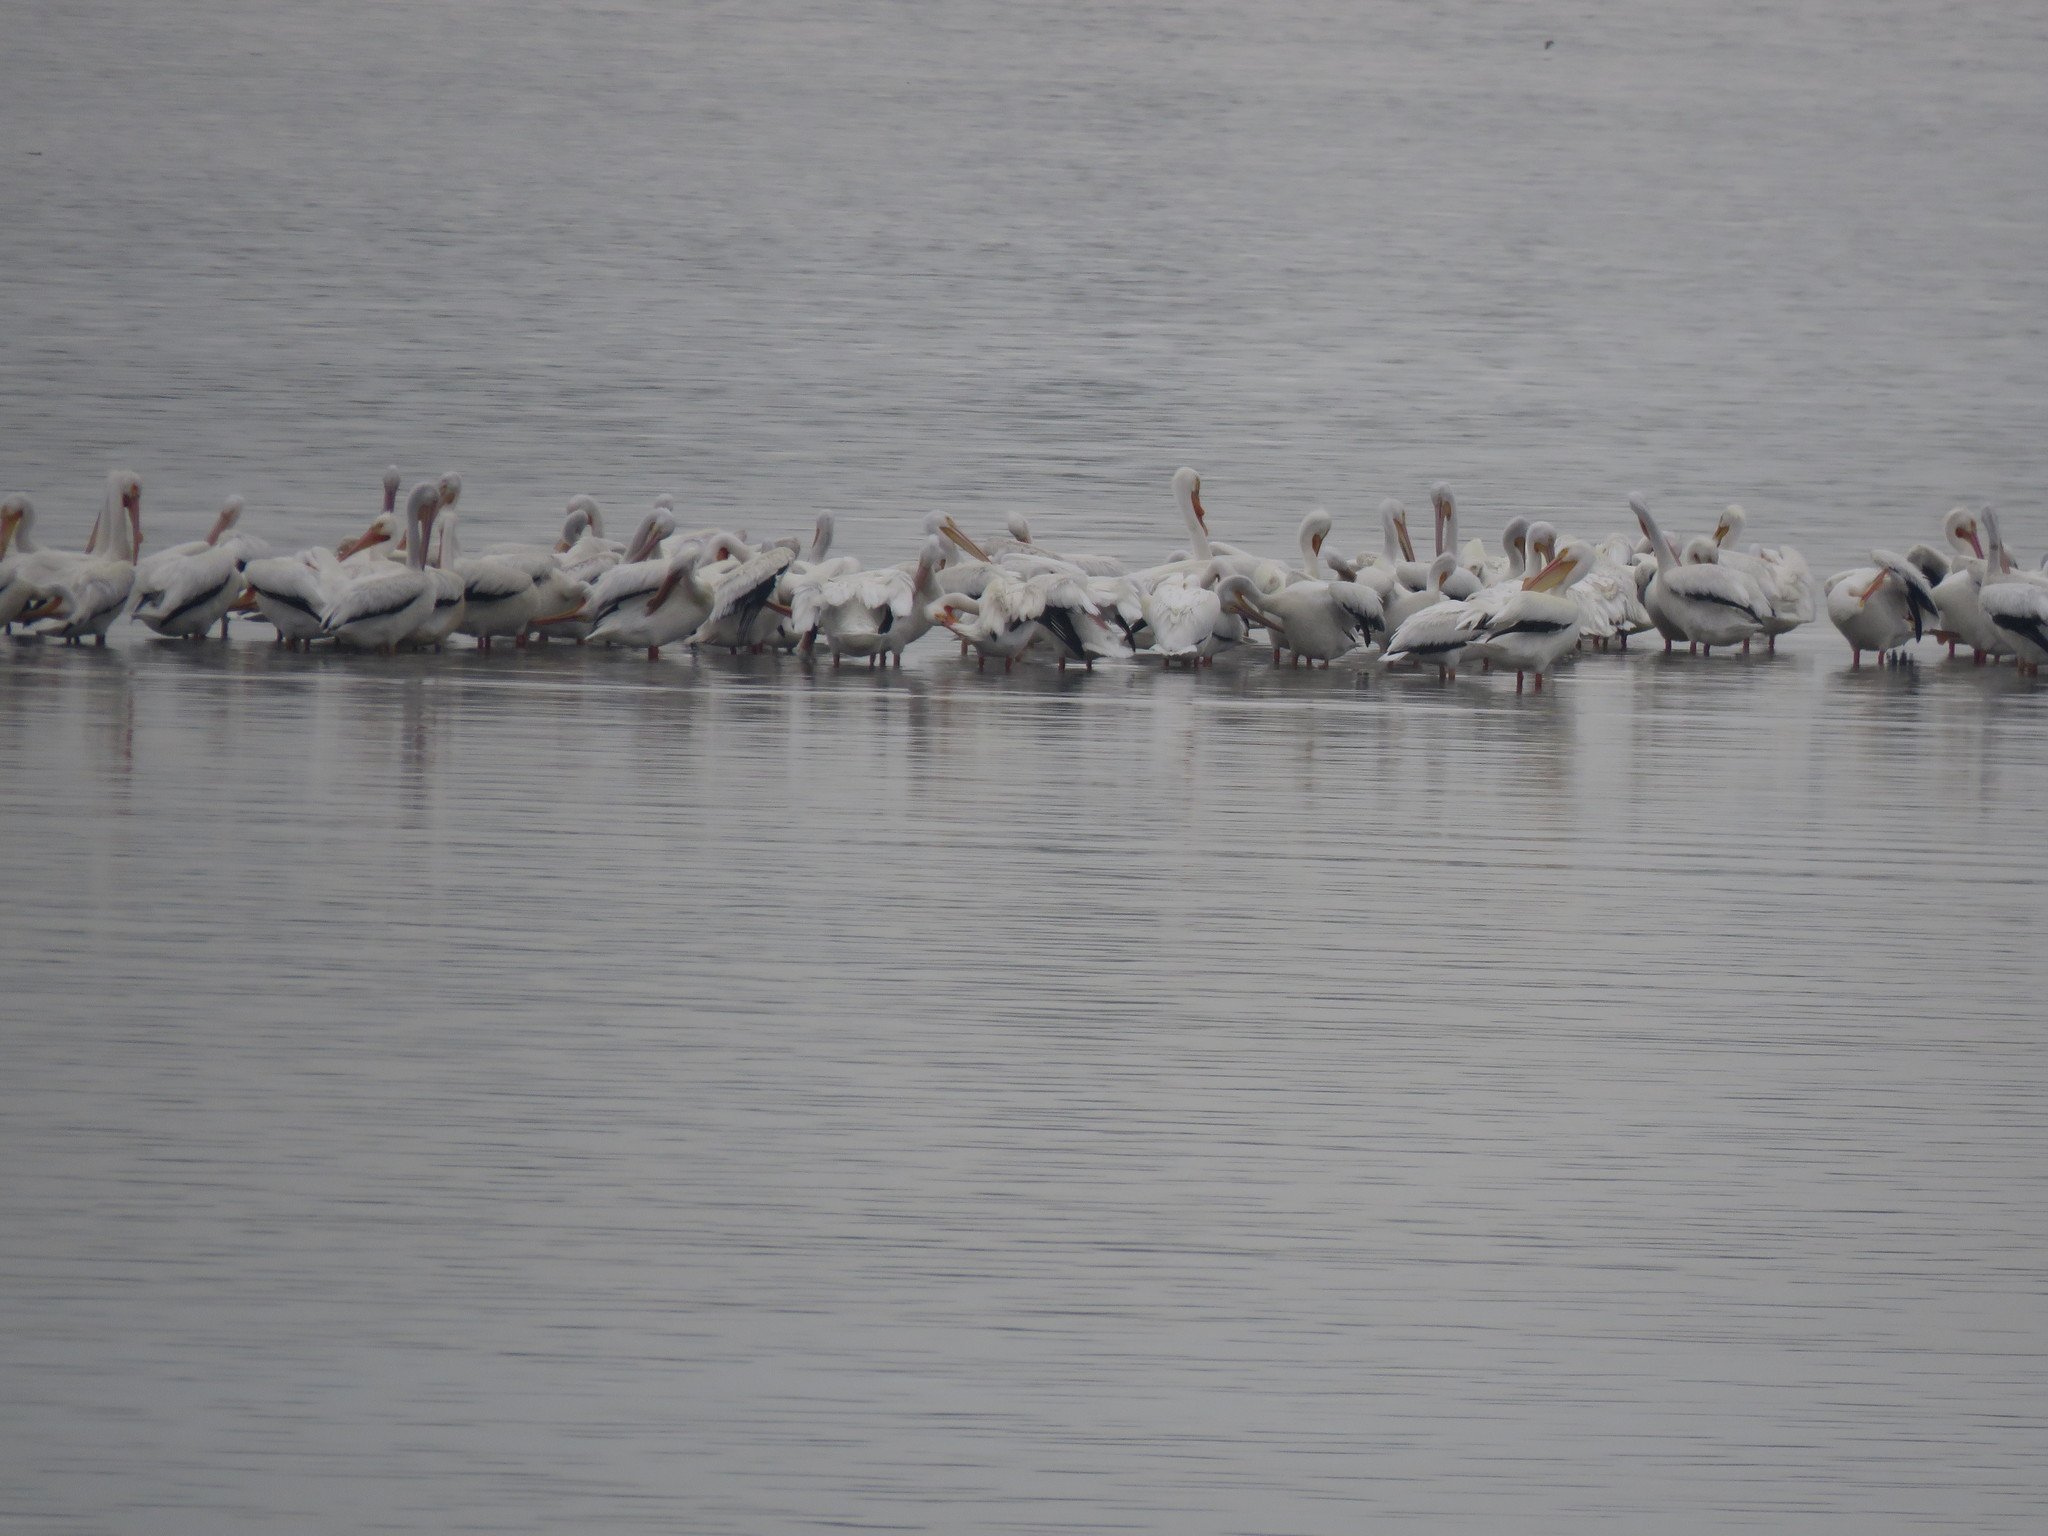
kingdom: Animalia
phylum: Chordata
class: Aves
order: Pelecaniformes
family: Pelecanidae
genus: Pelecanus
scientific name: Pelecanus erythrorhynchos
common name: American white pelican
